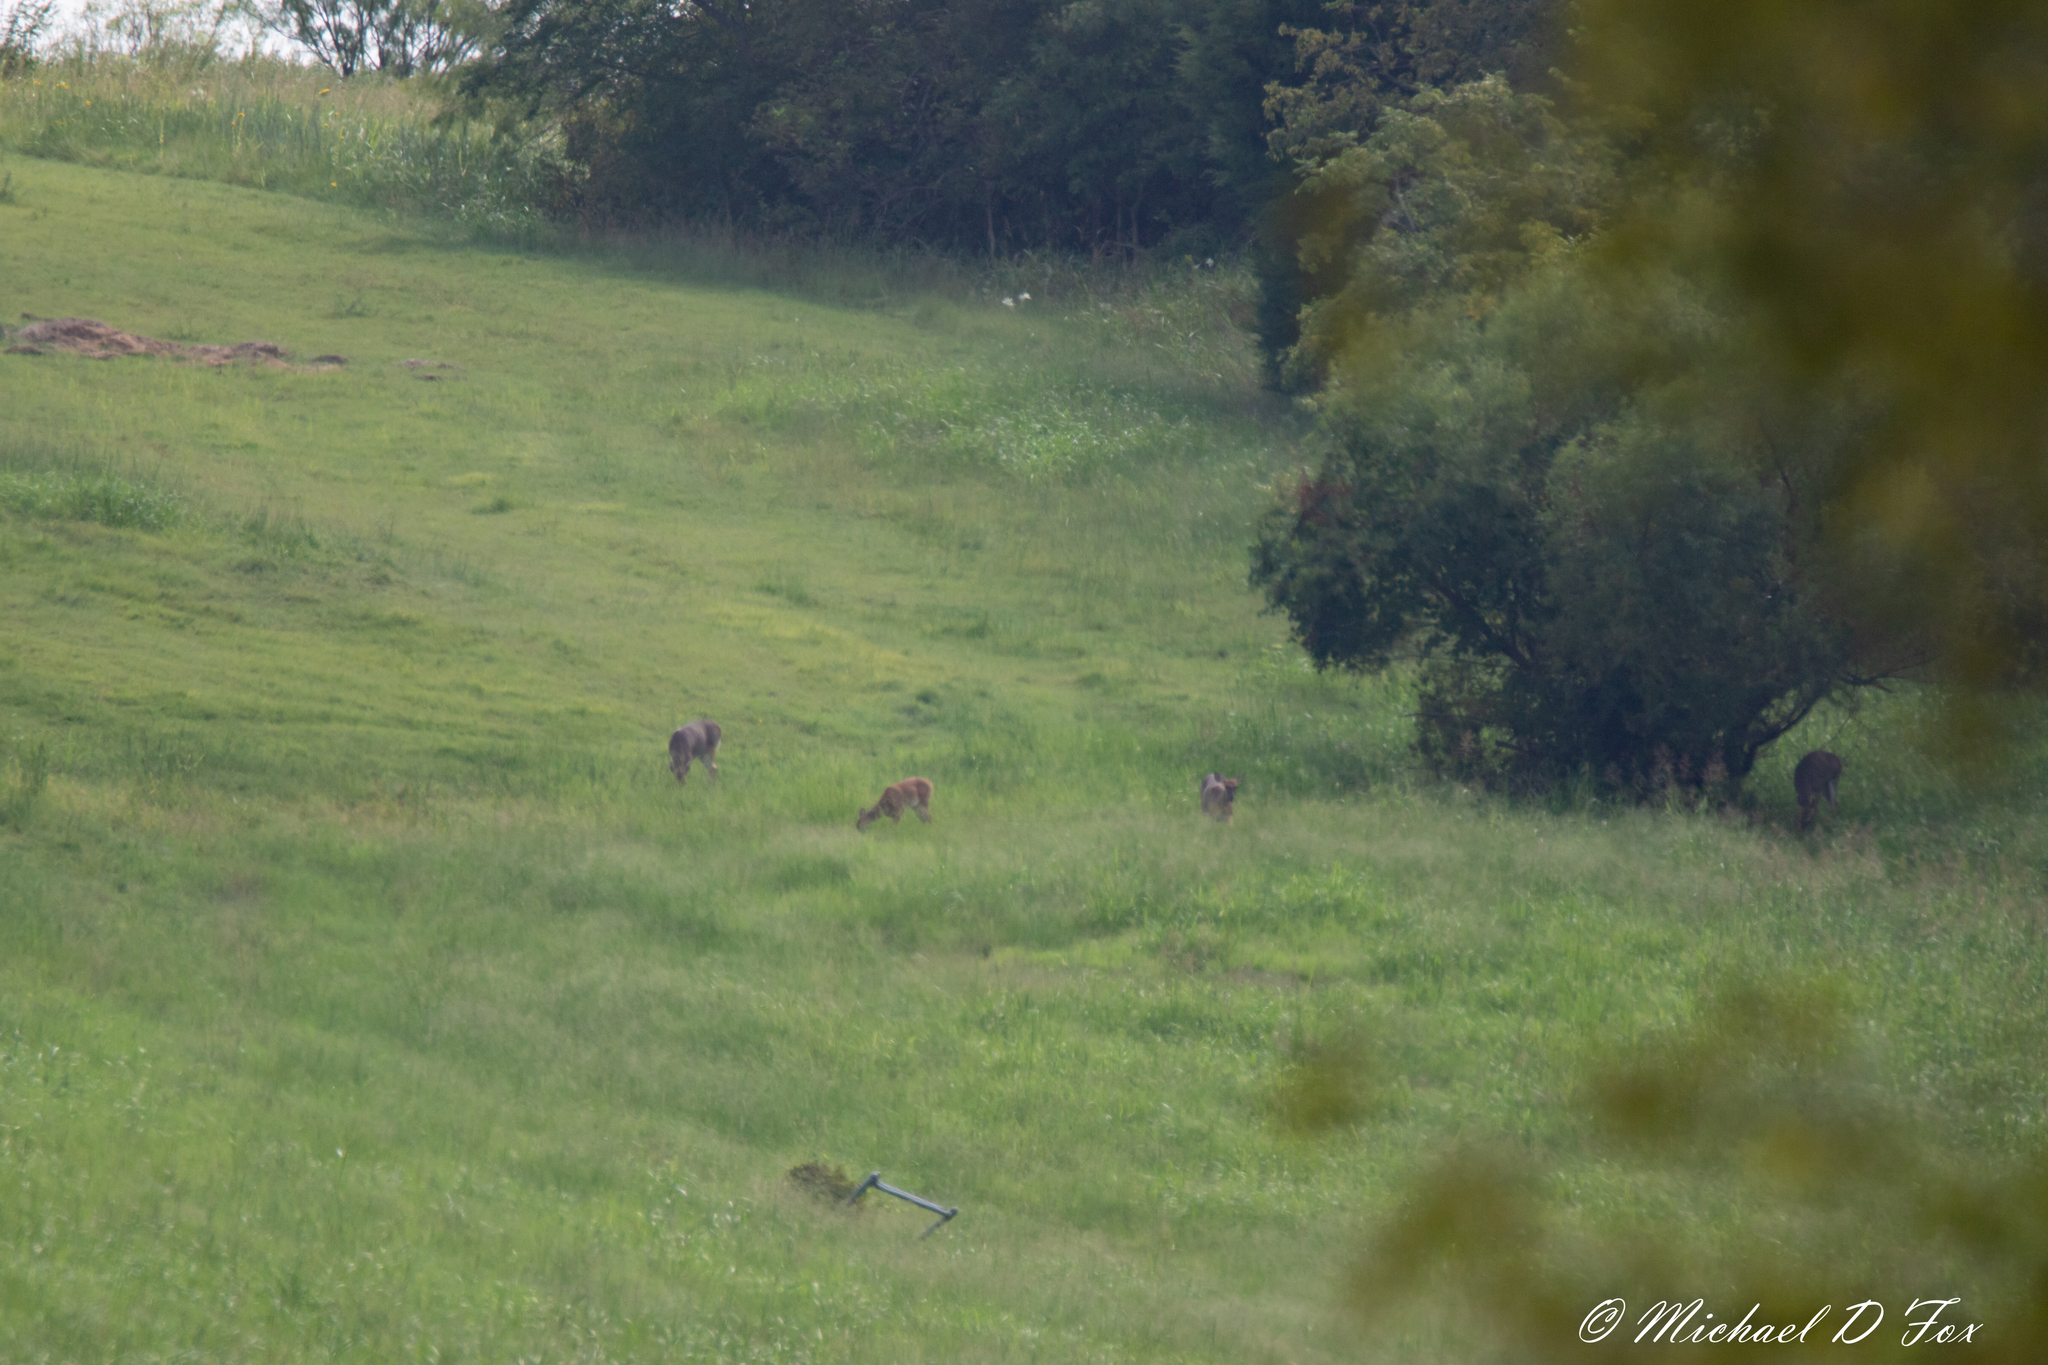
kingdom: Animalia
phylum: Chordata
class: Mammalia
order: Artiodactyla
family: Cervidae
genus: Odocoileus
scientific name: Odocoileus virginianus
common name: White-tailed deer
